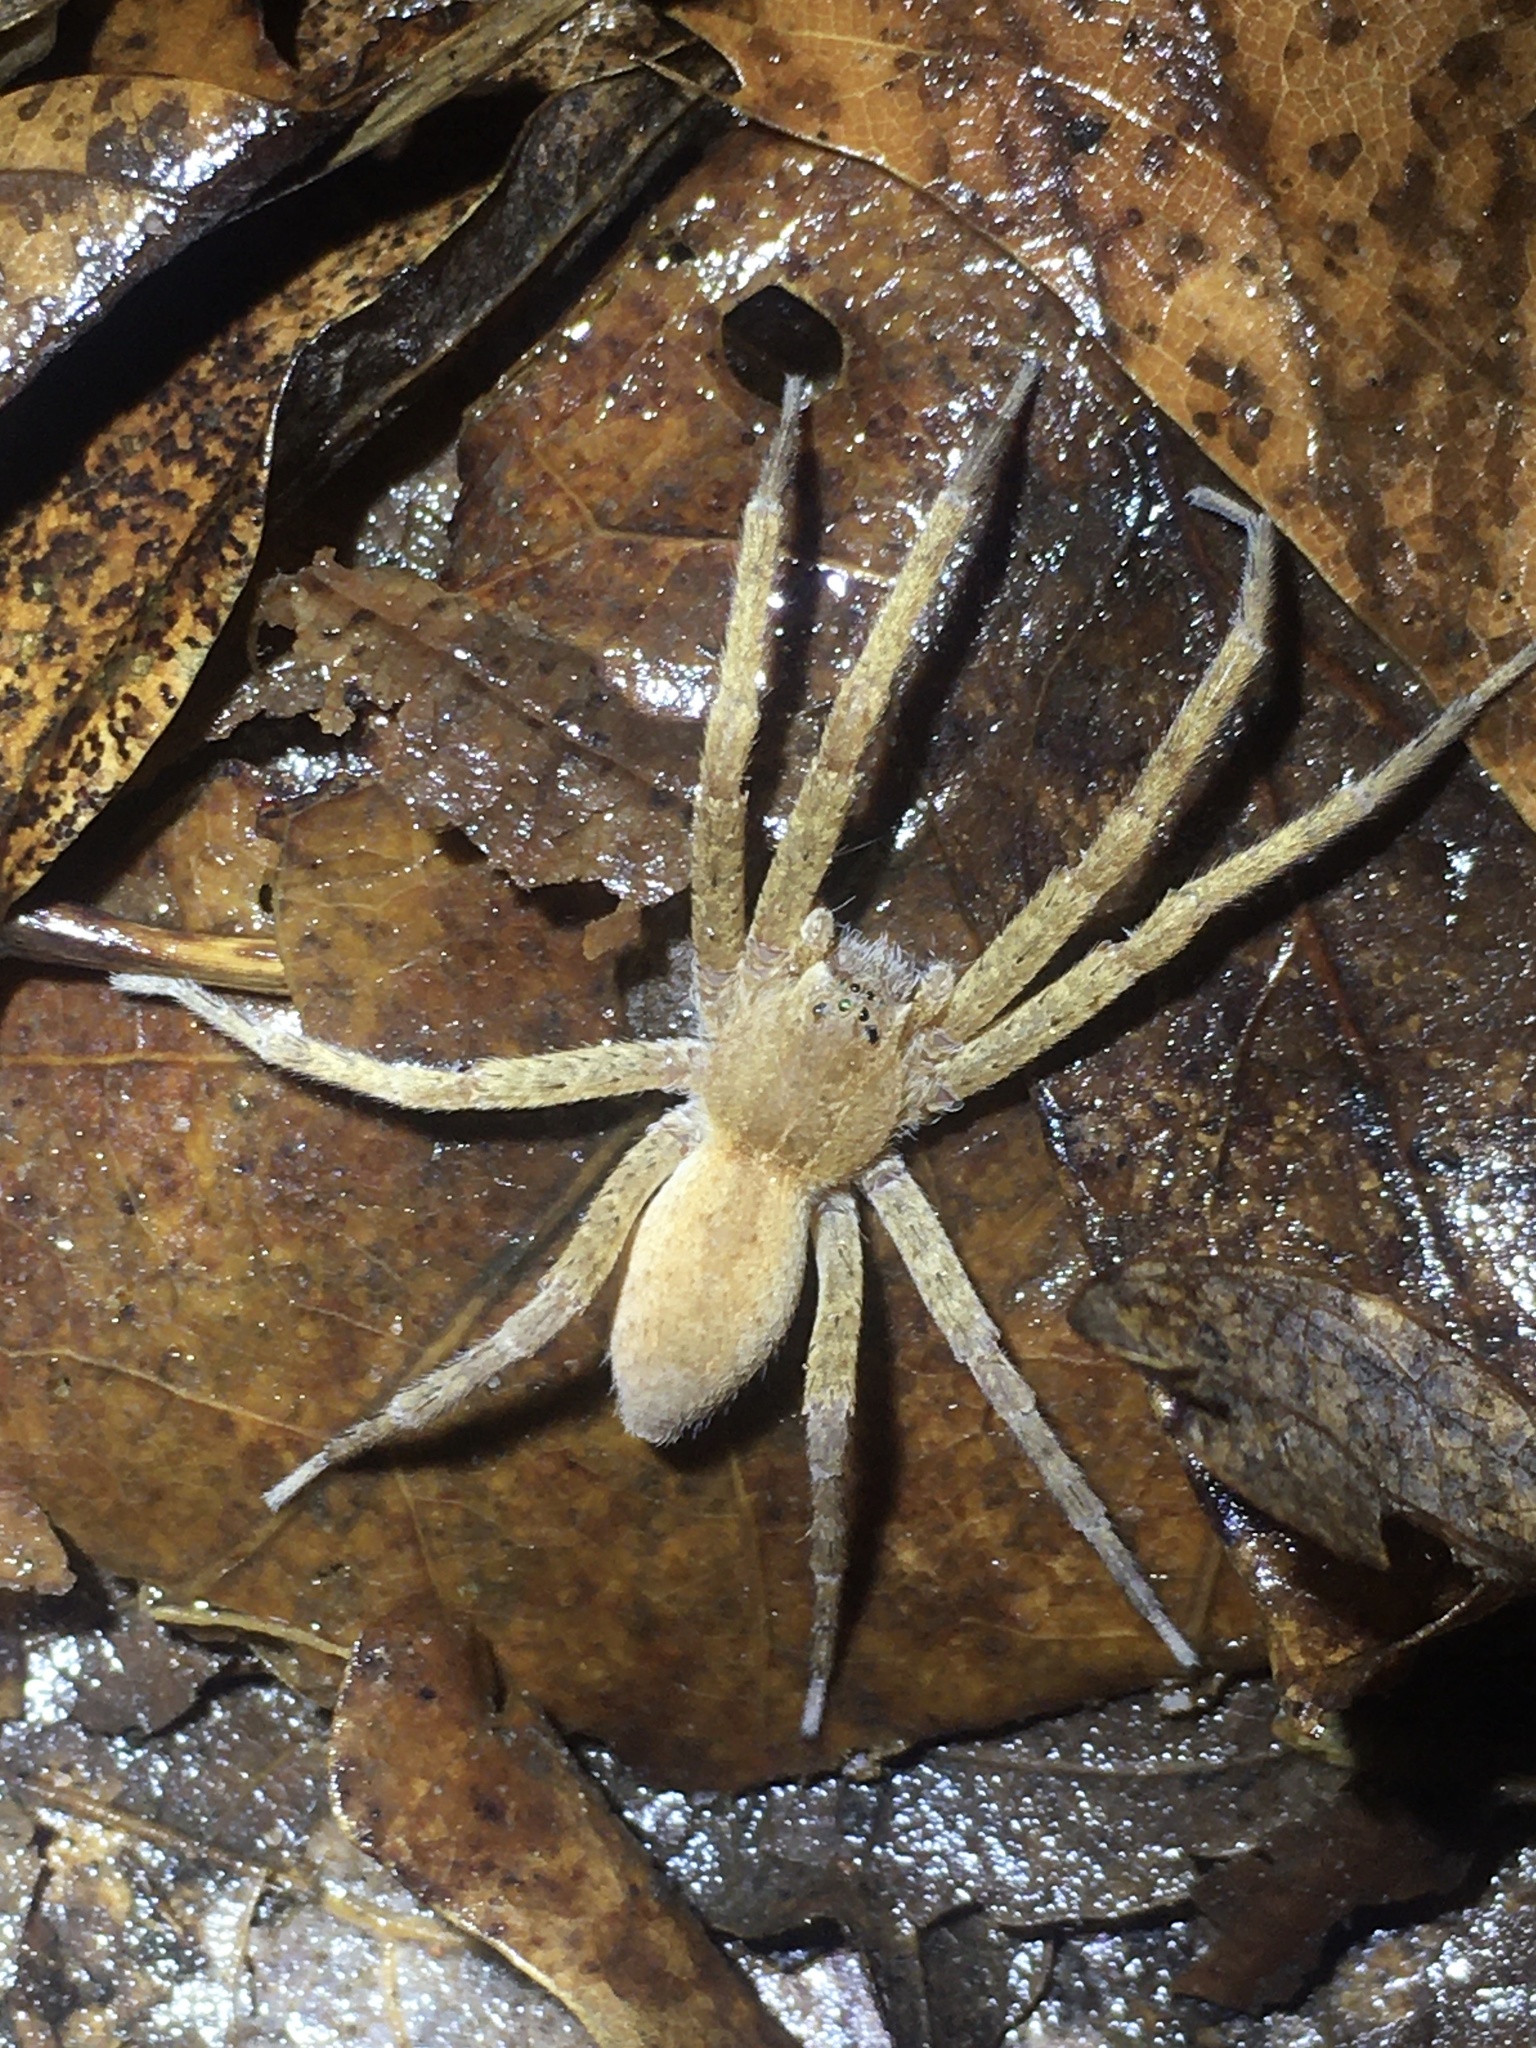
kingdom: Animalia
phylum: Arthropoda
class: Arachnida
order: Araneae
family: Pisauridae
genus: Pisaurina
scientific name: Pisaurina mira
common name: American nursery web spider
